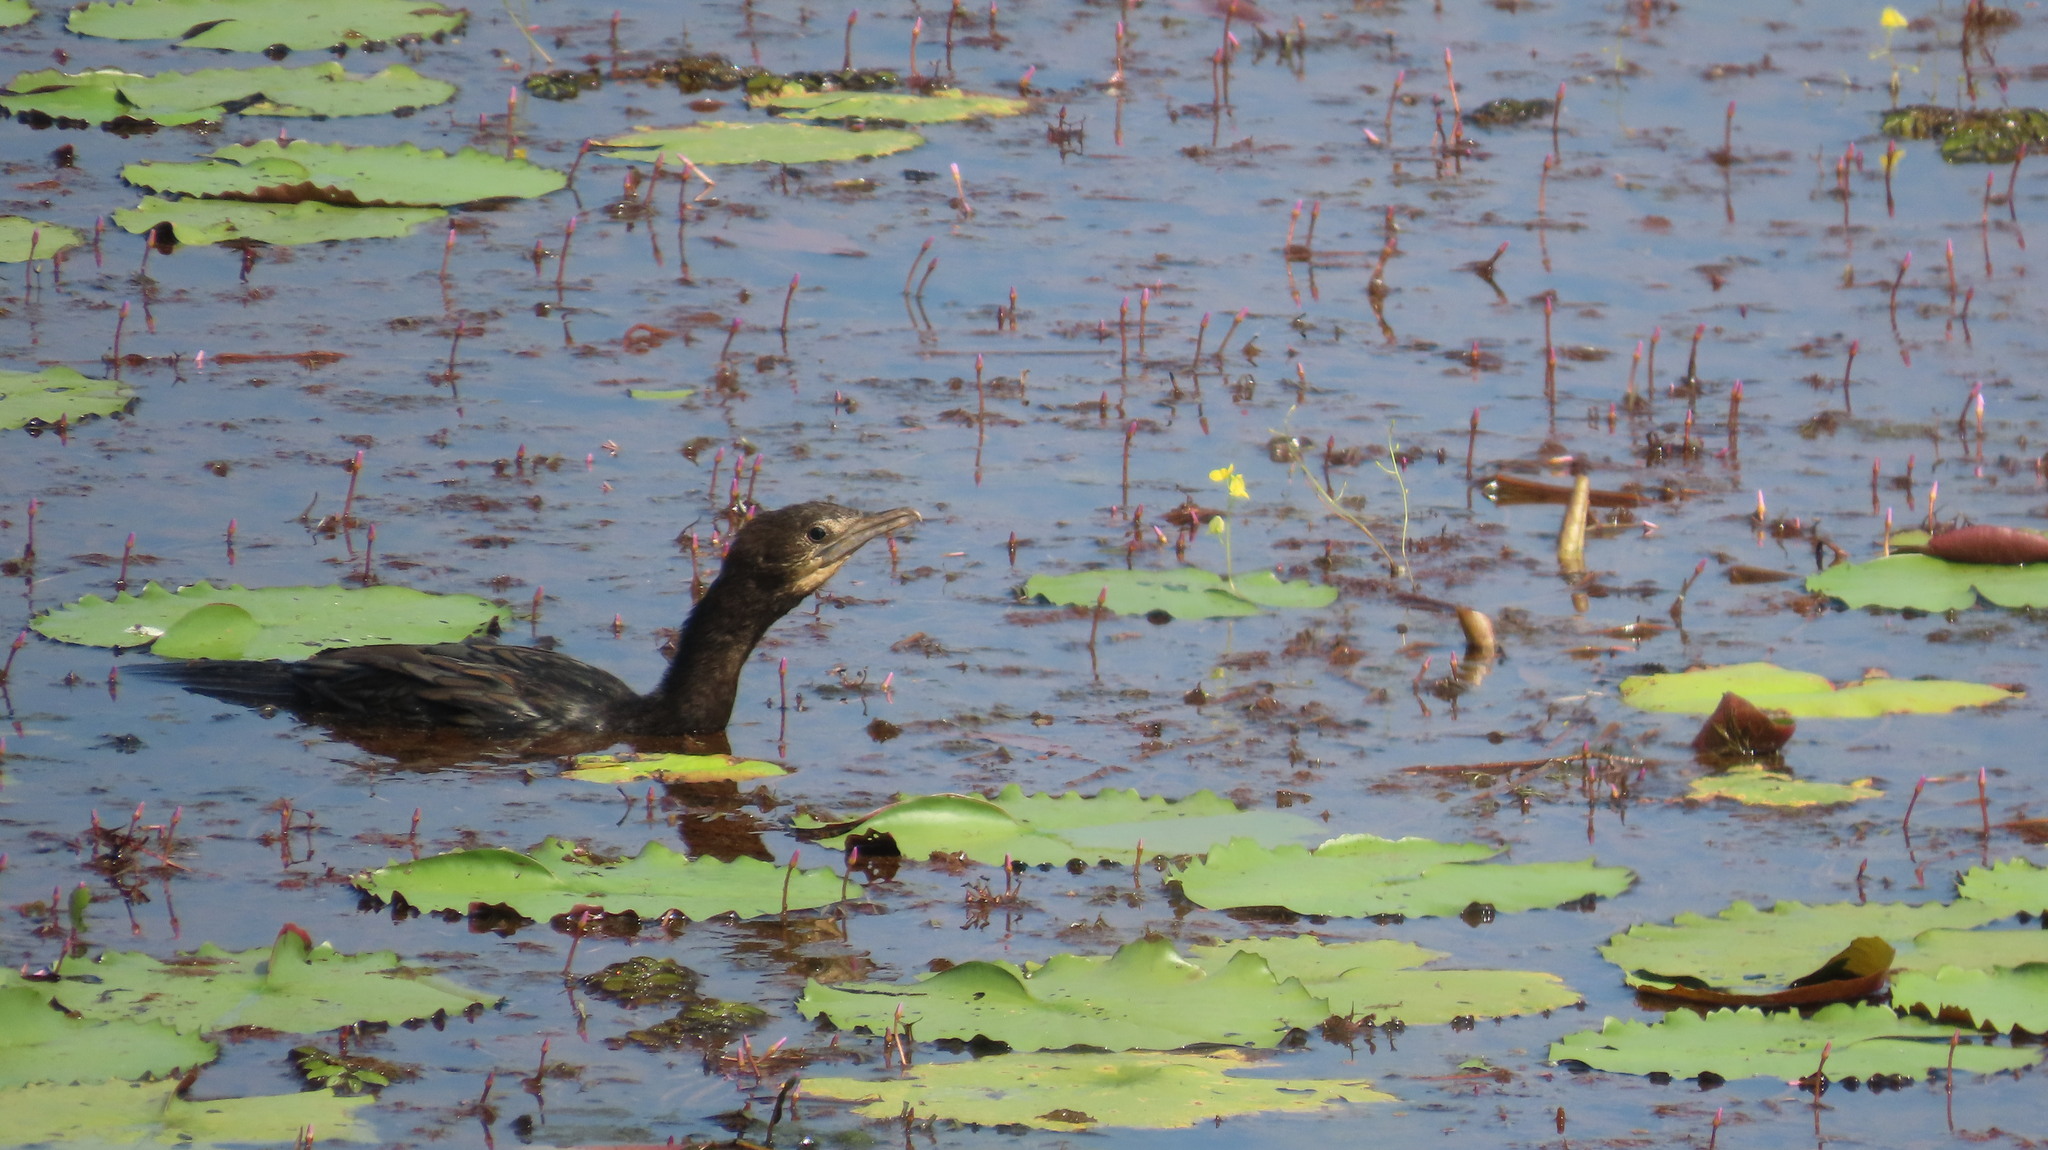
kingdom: Animalia
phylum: Chordata
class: Aves
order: Suliformes
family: Phalacrocoracidae
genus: Microcarbo
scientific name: Microcarbo niger
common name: Little cormorant
